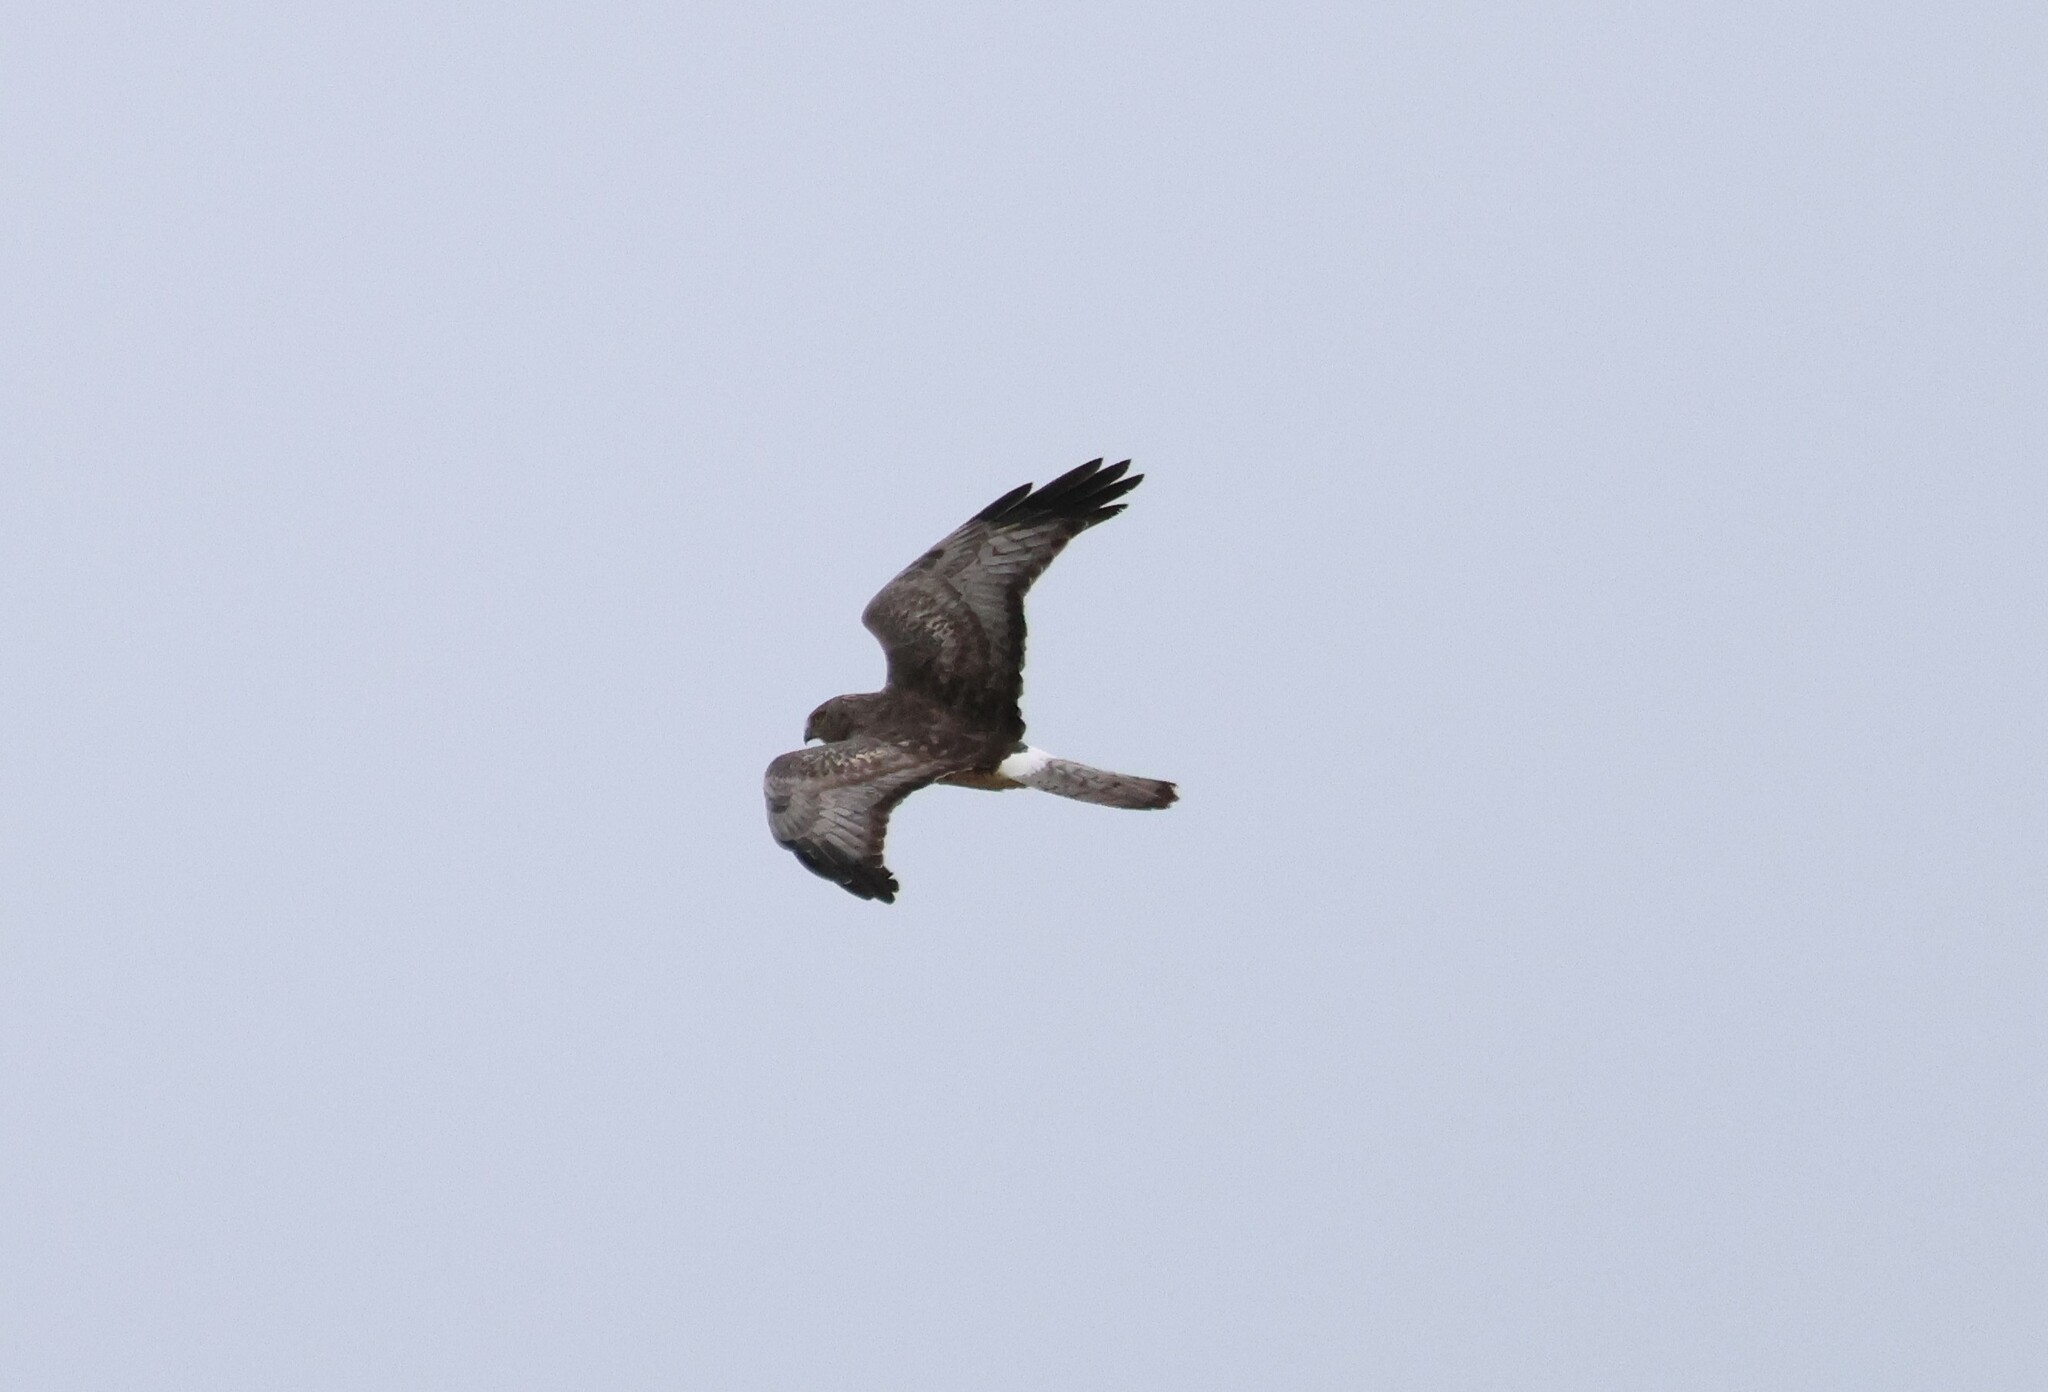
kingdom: Animalia
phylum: Chordata
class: Aves
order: Accipitriformes
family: Accipitridae
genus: Circus
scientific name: Circus cyaneus
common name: Hen harrier
